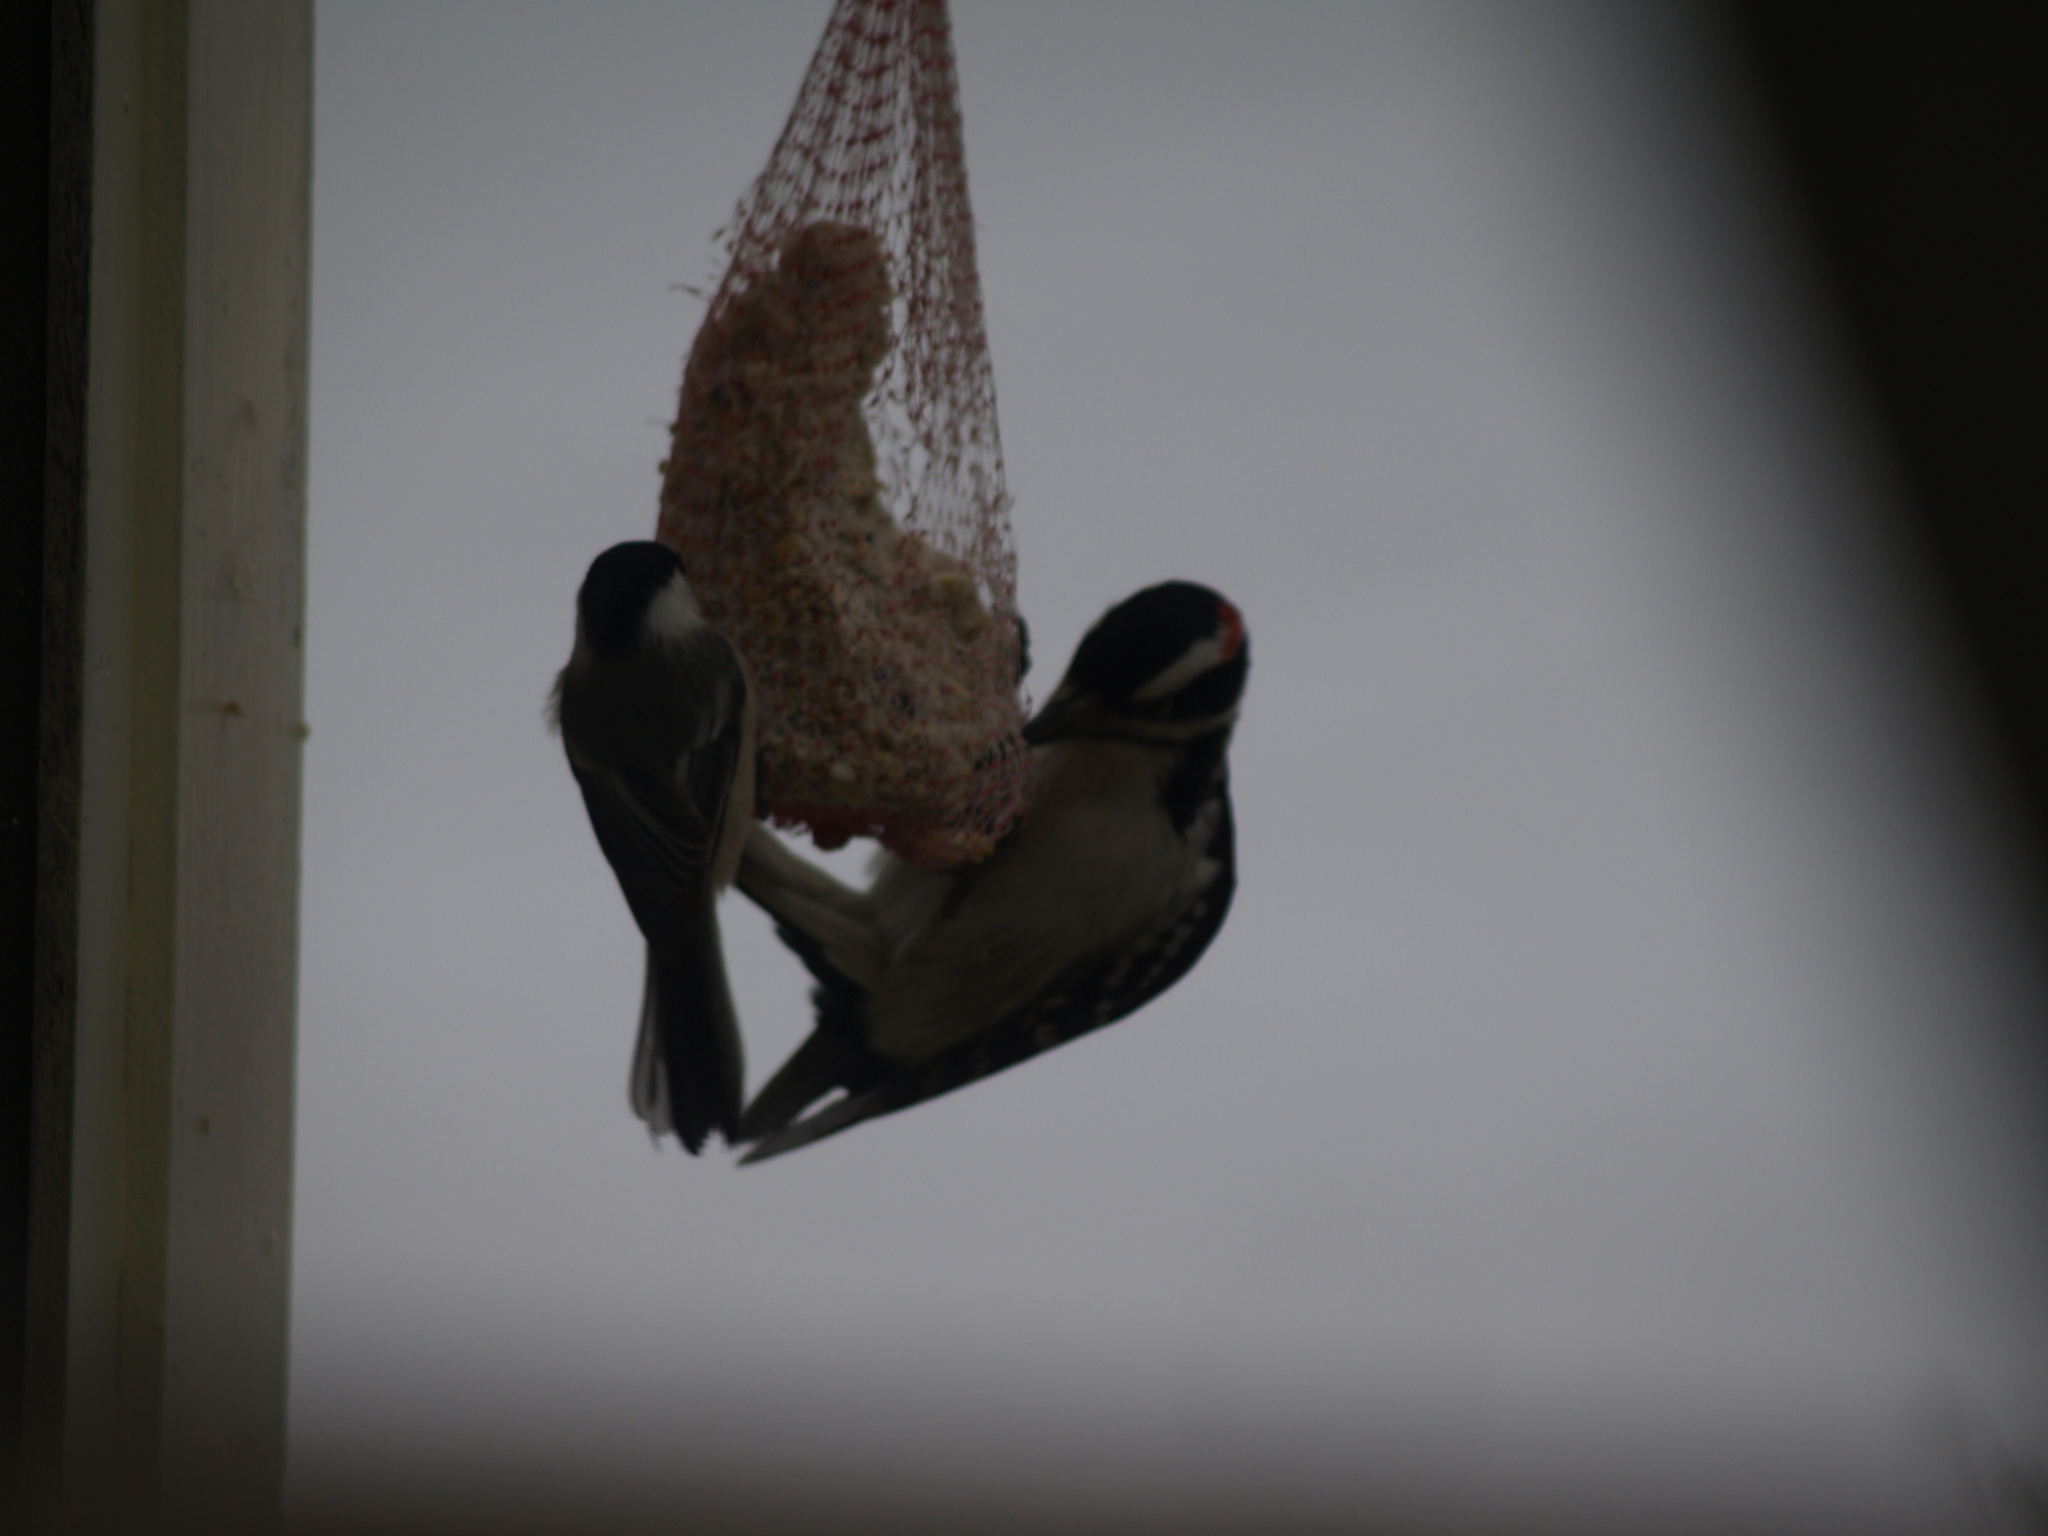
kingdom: Animalia
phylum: Chordata
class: Aves
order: Passeriformes
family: Paridae
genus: Poecile
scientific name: Poecile atricapillus
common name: Black-capped chickadee
